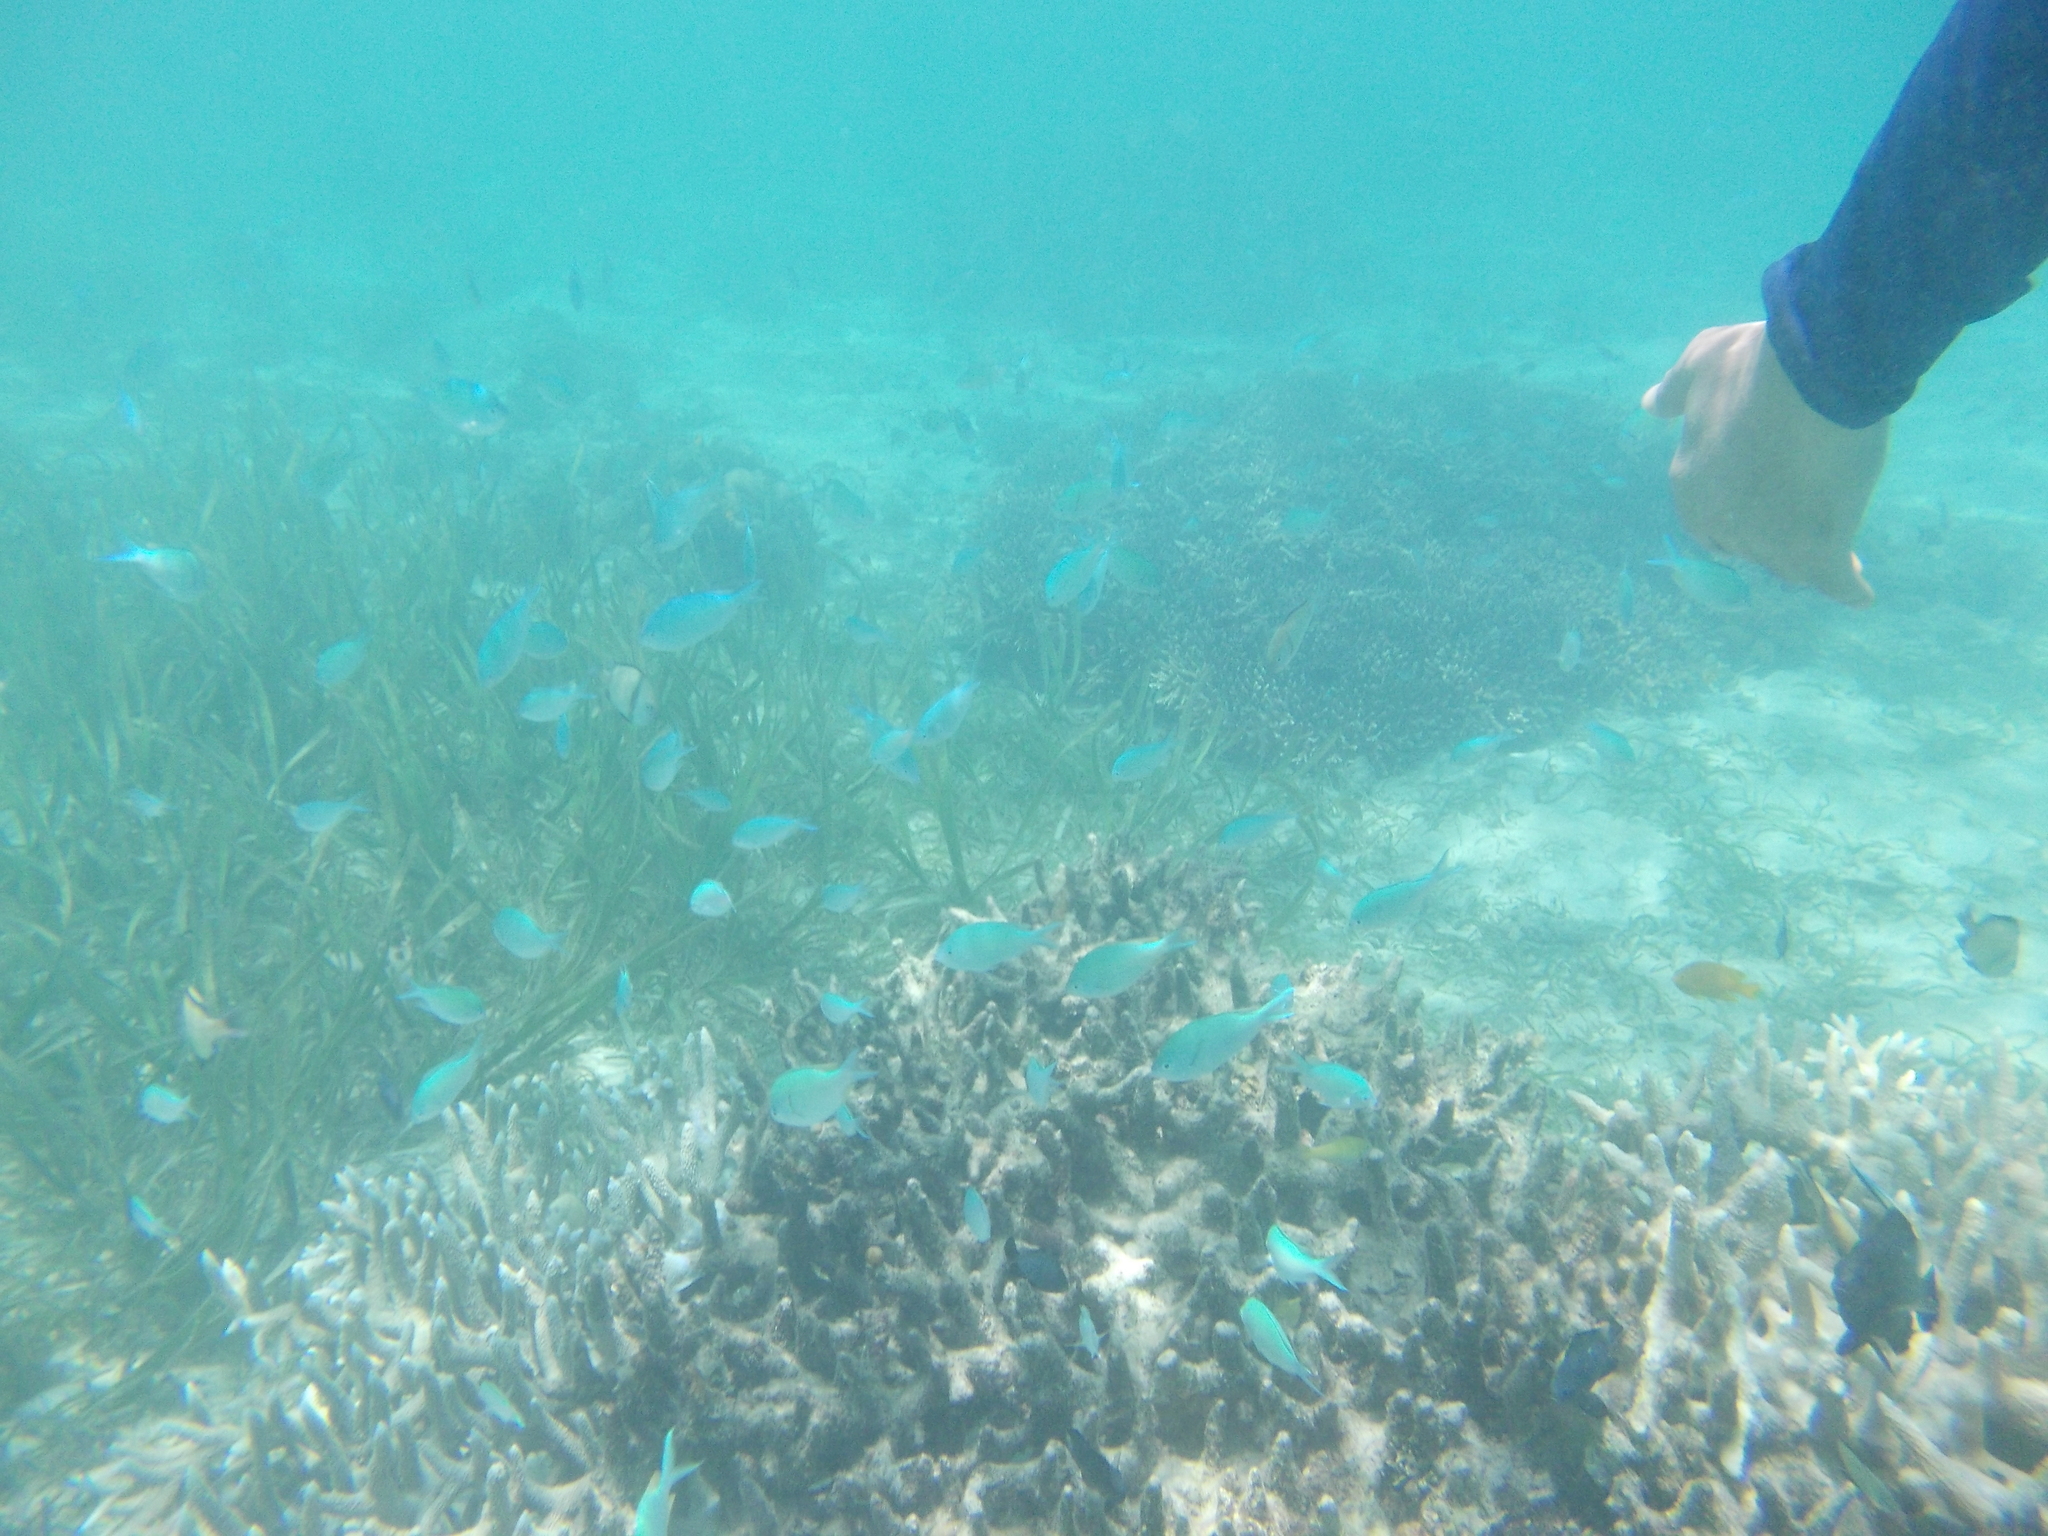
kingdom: Animalia
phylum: Chordata
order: Perciformes
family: Pomacentridae
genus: Chromis
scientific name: Chromis viridis
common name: Blue-green chromis
